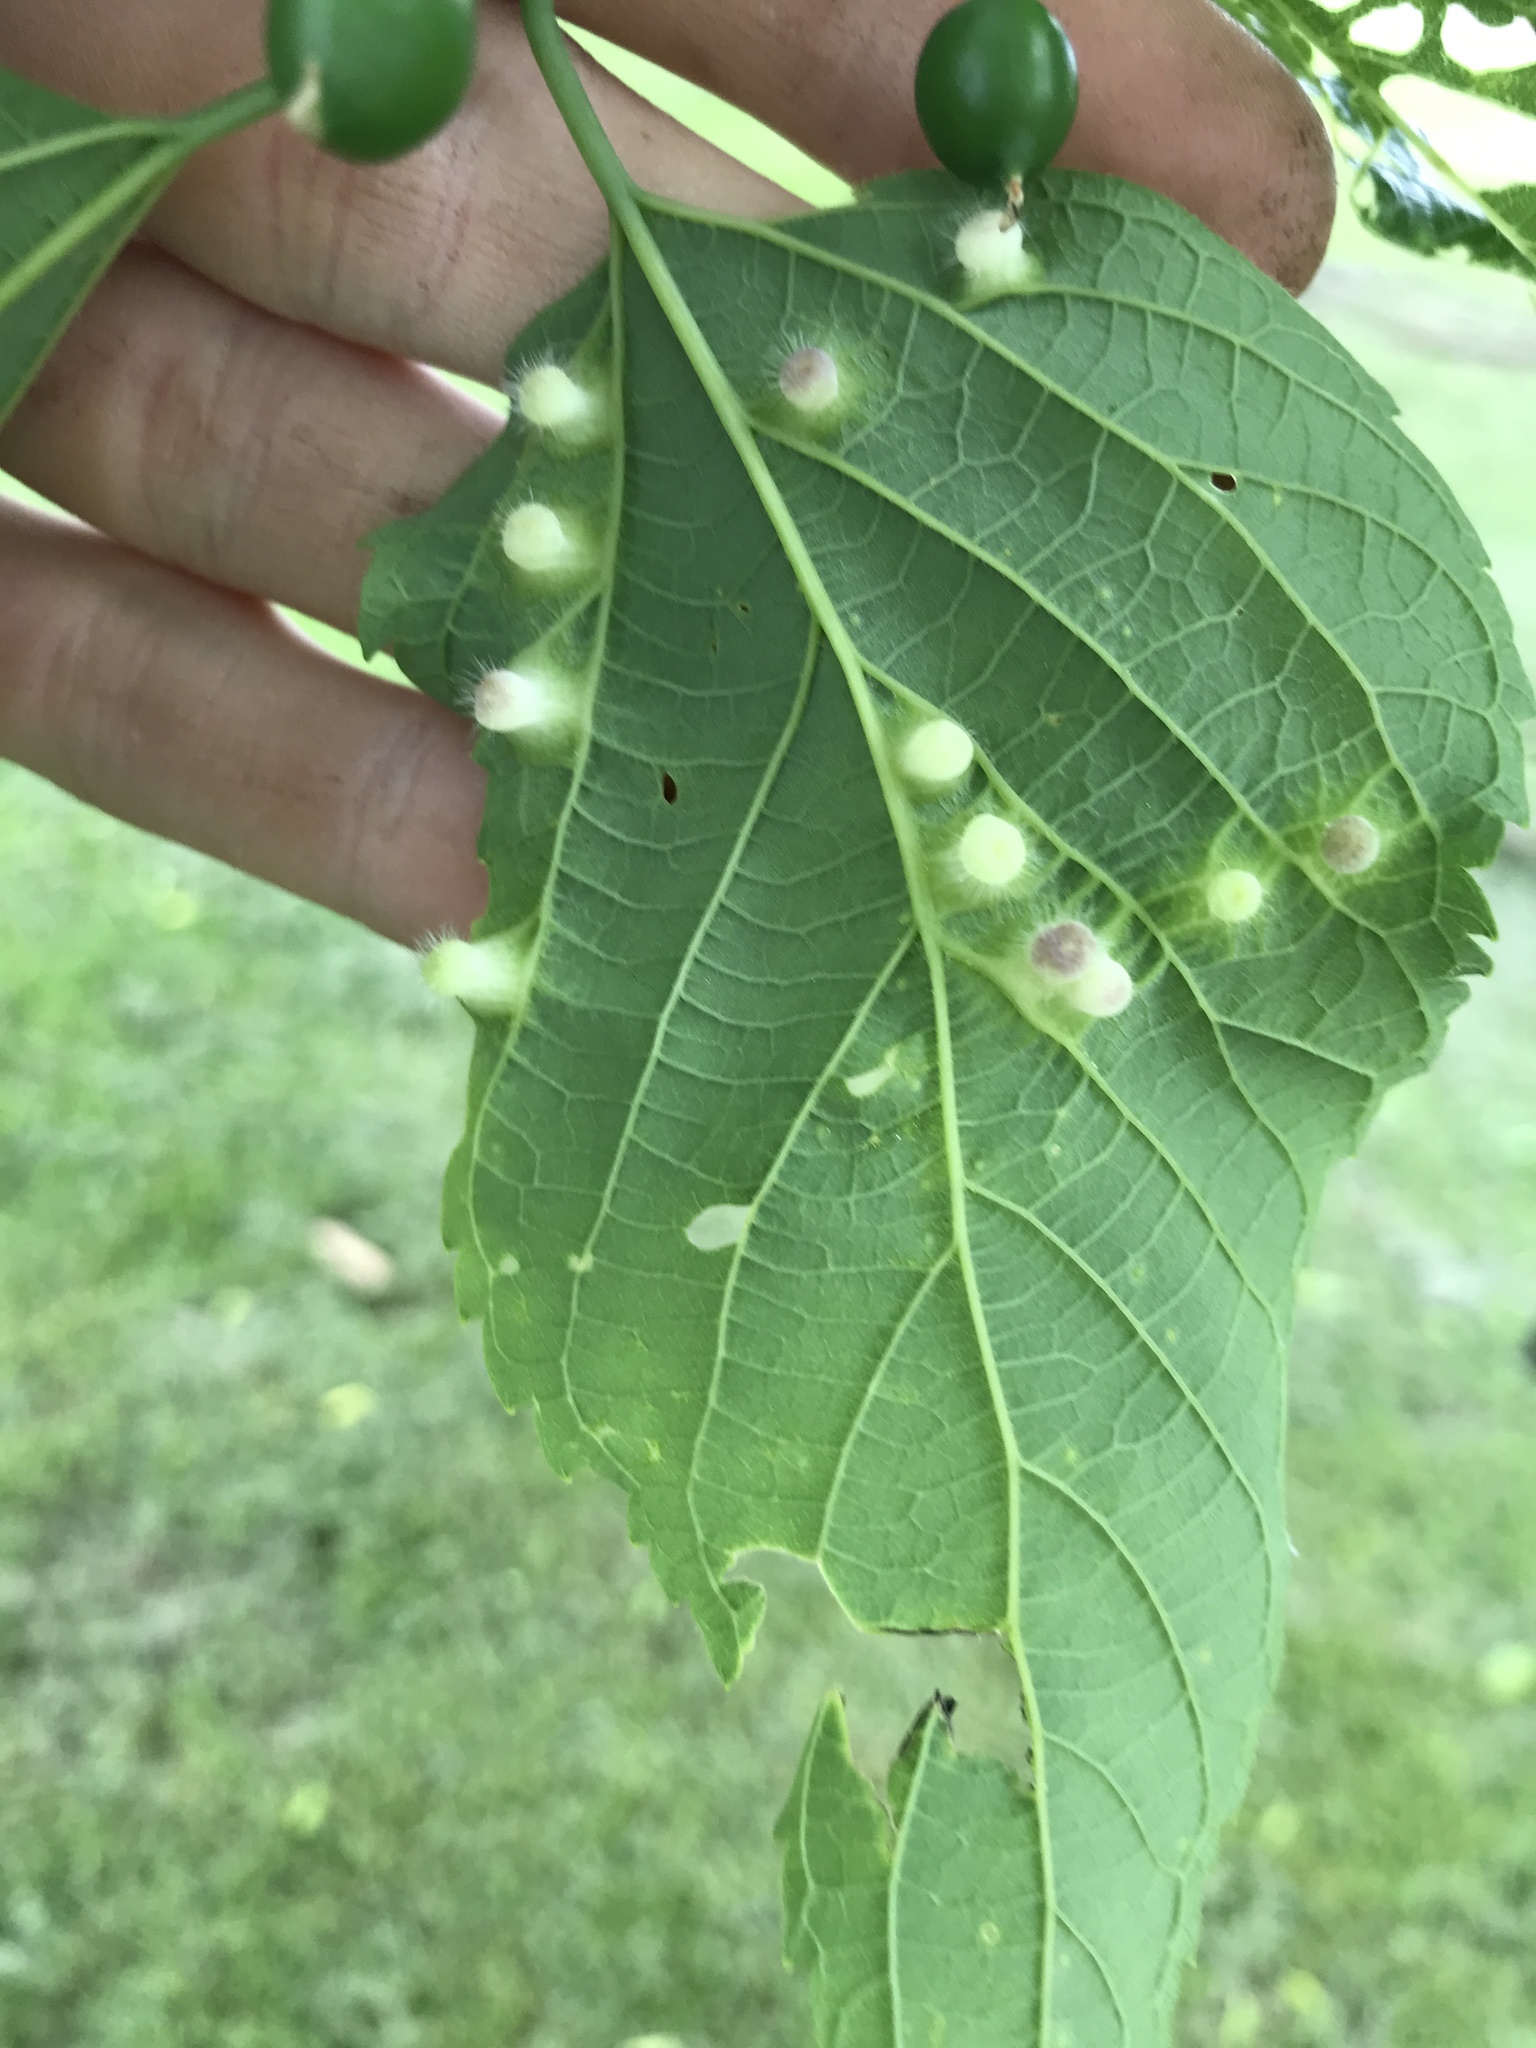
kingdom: Animalia
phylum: Arthropoda
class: Insecta
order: Hemiptera
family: Aphalaridae
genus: Pachypsylla
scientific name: Pachypsylla celtidismamma
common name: Hackberry nipplegall psyllid
